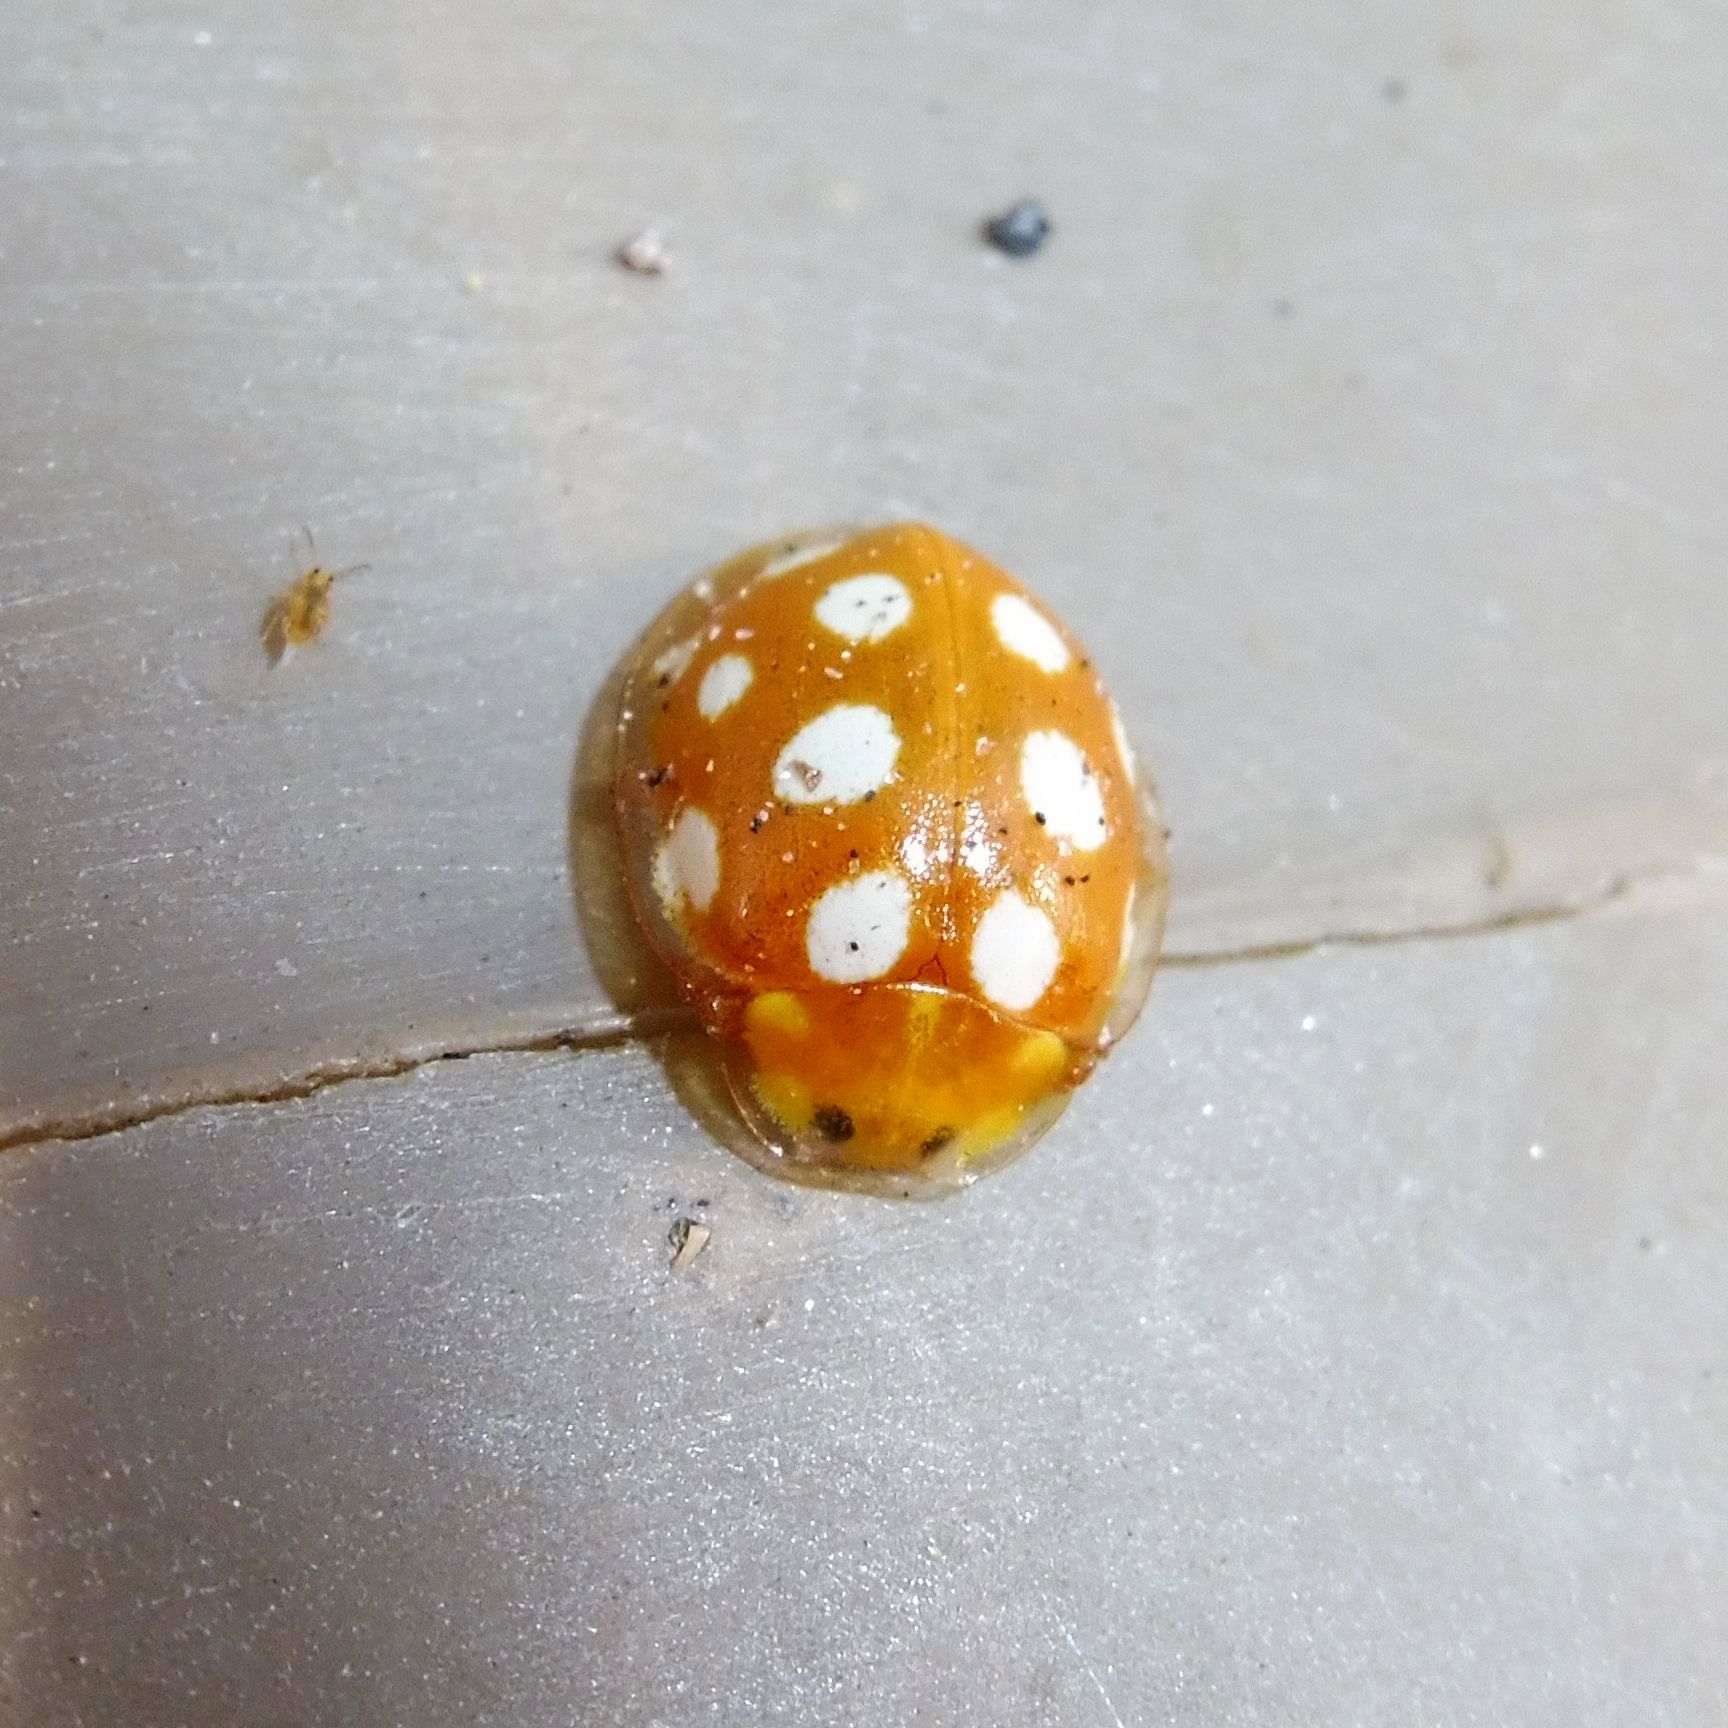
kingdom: Animalia
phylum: Arthropoda
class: Insecta
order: Coleoptera
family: Coccinellidae
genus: Halyzia
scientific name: Halyzia sedecimguttata
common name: Orange ladybird
